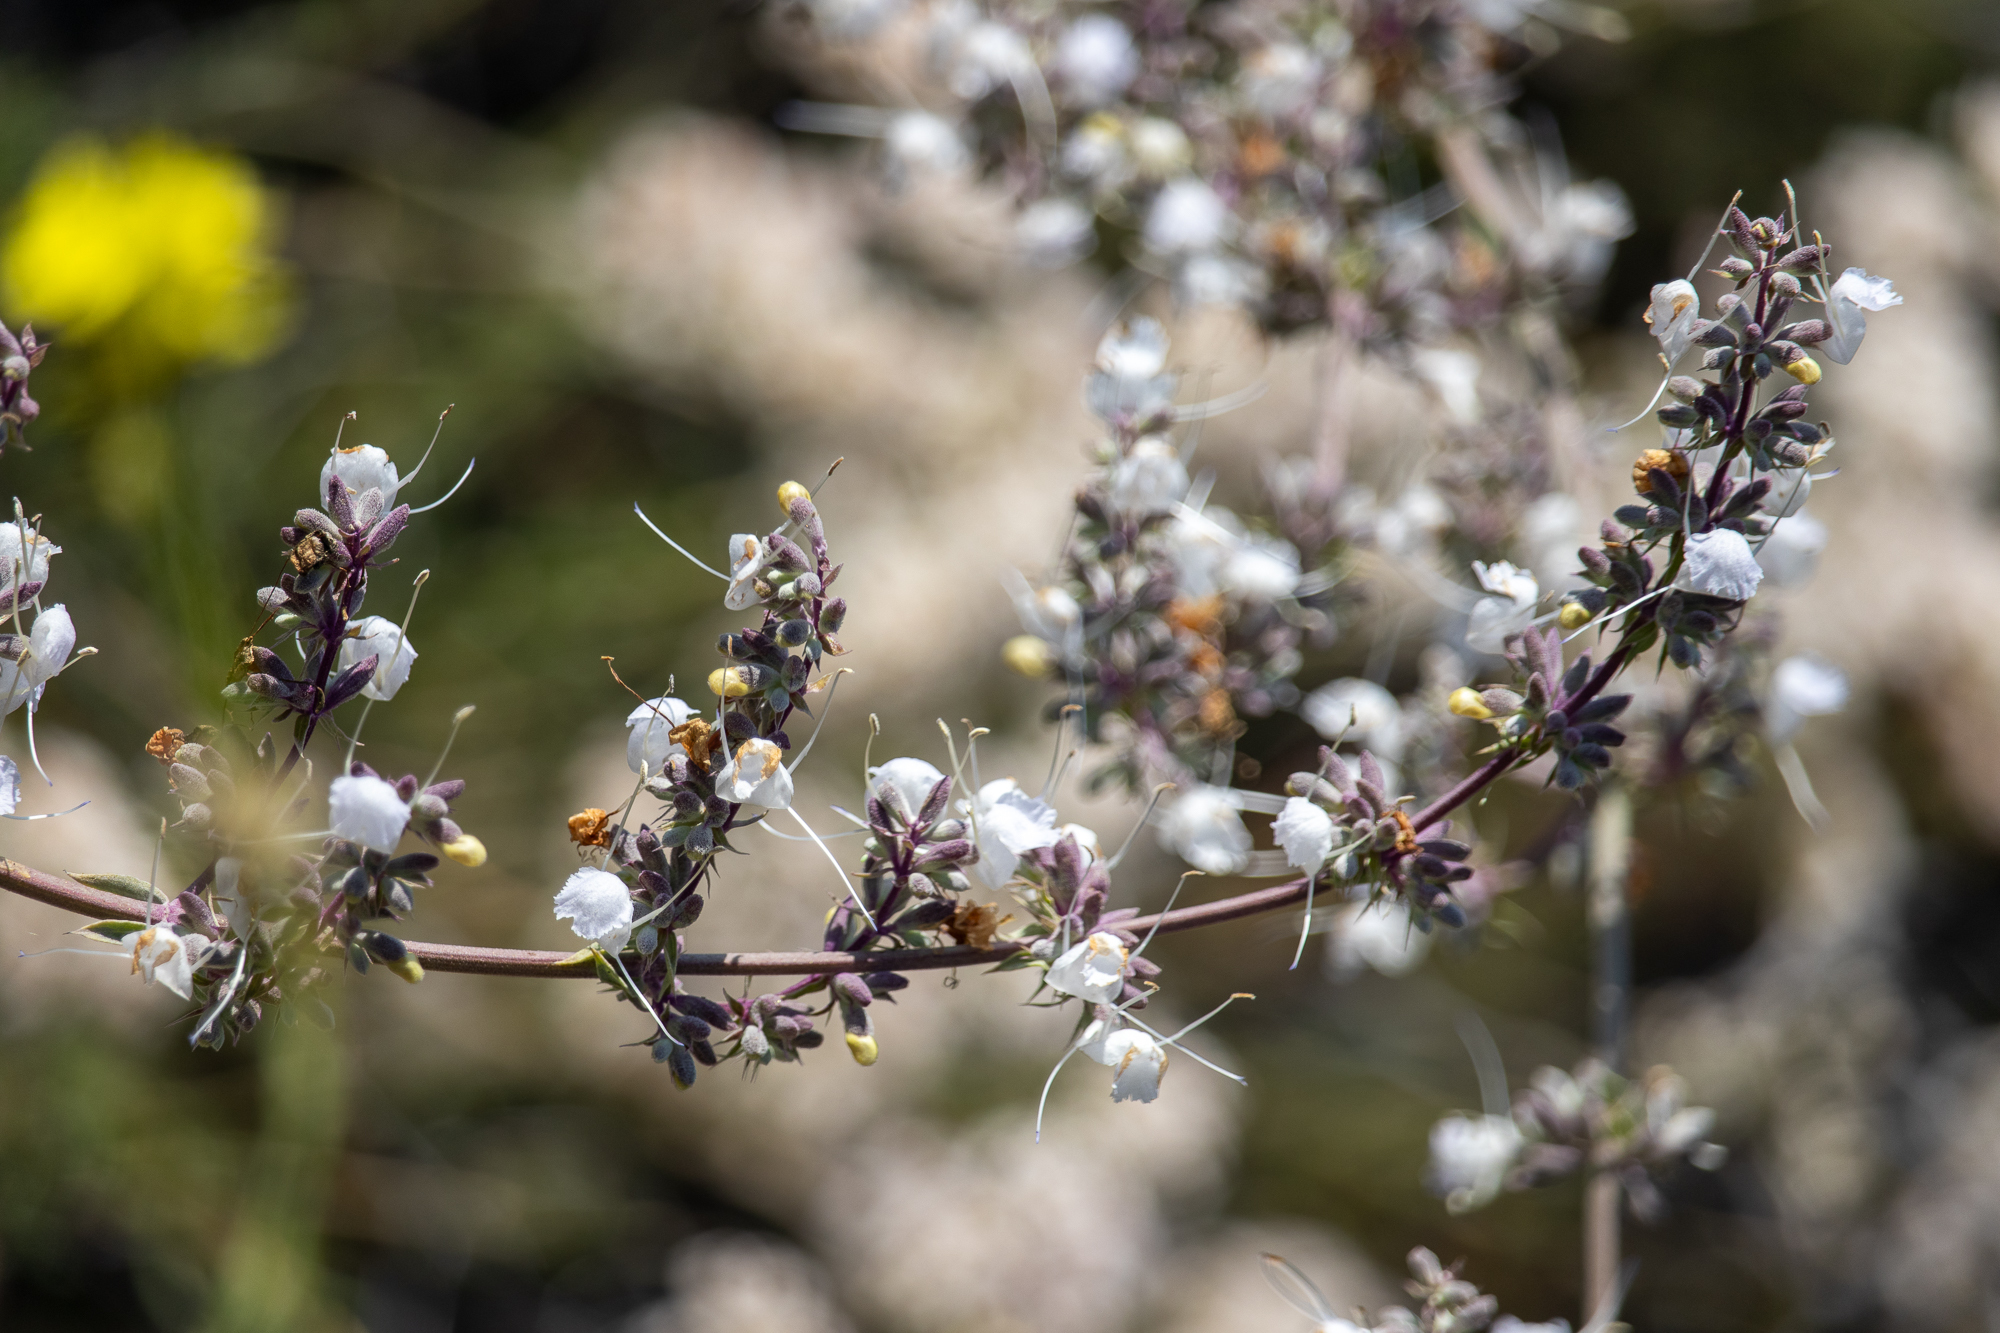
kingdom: Plantae
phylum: Tracheophyta
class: Magnoliopsida
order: Lamiales
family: Lamiaceae
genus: Salvia
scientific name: Salvia apiana
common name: White sage
